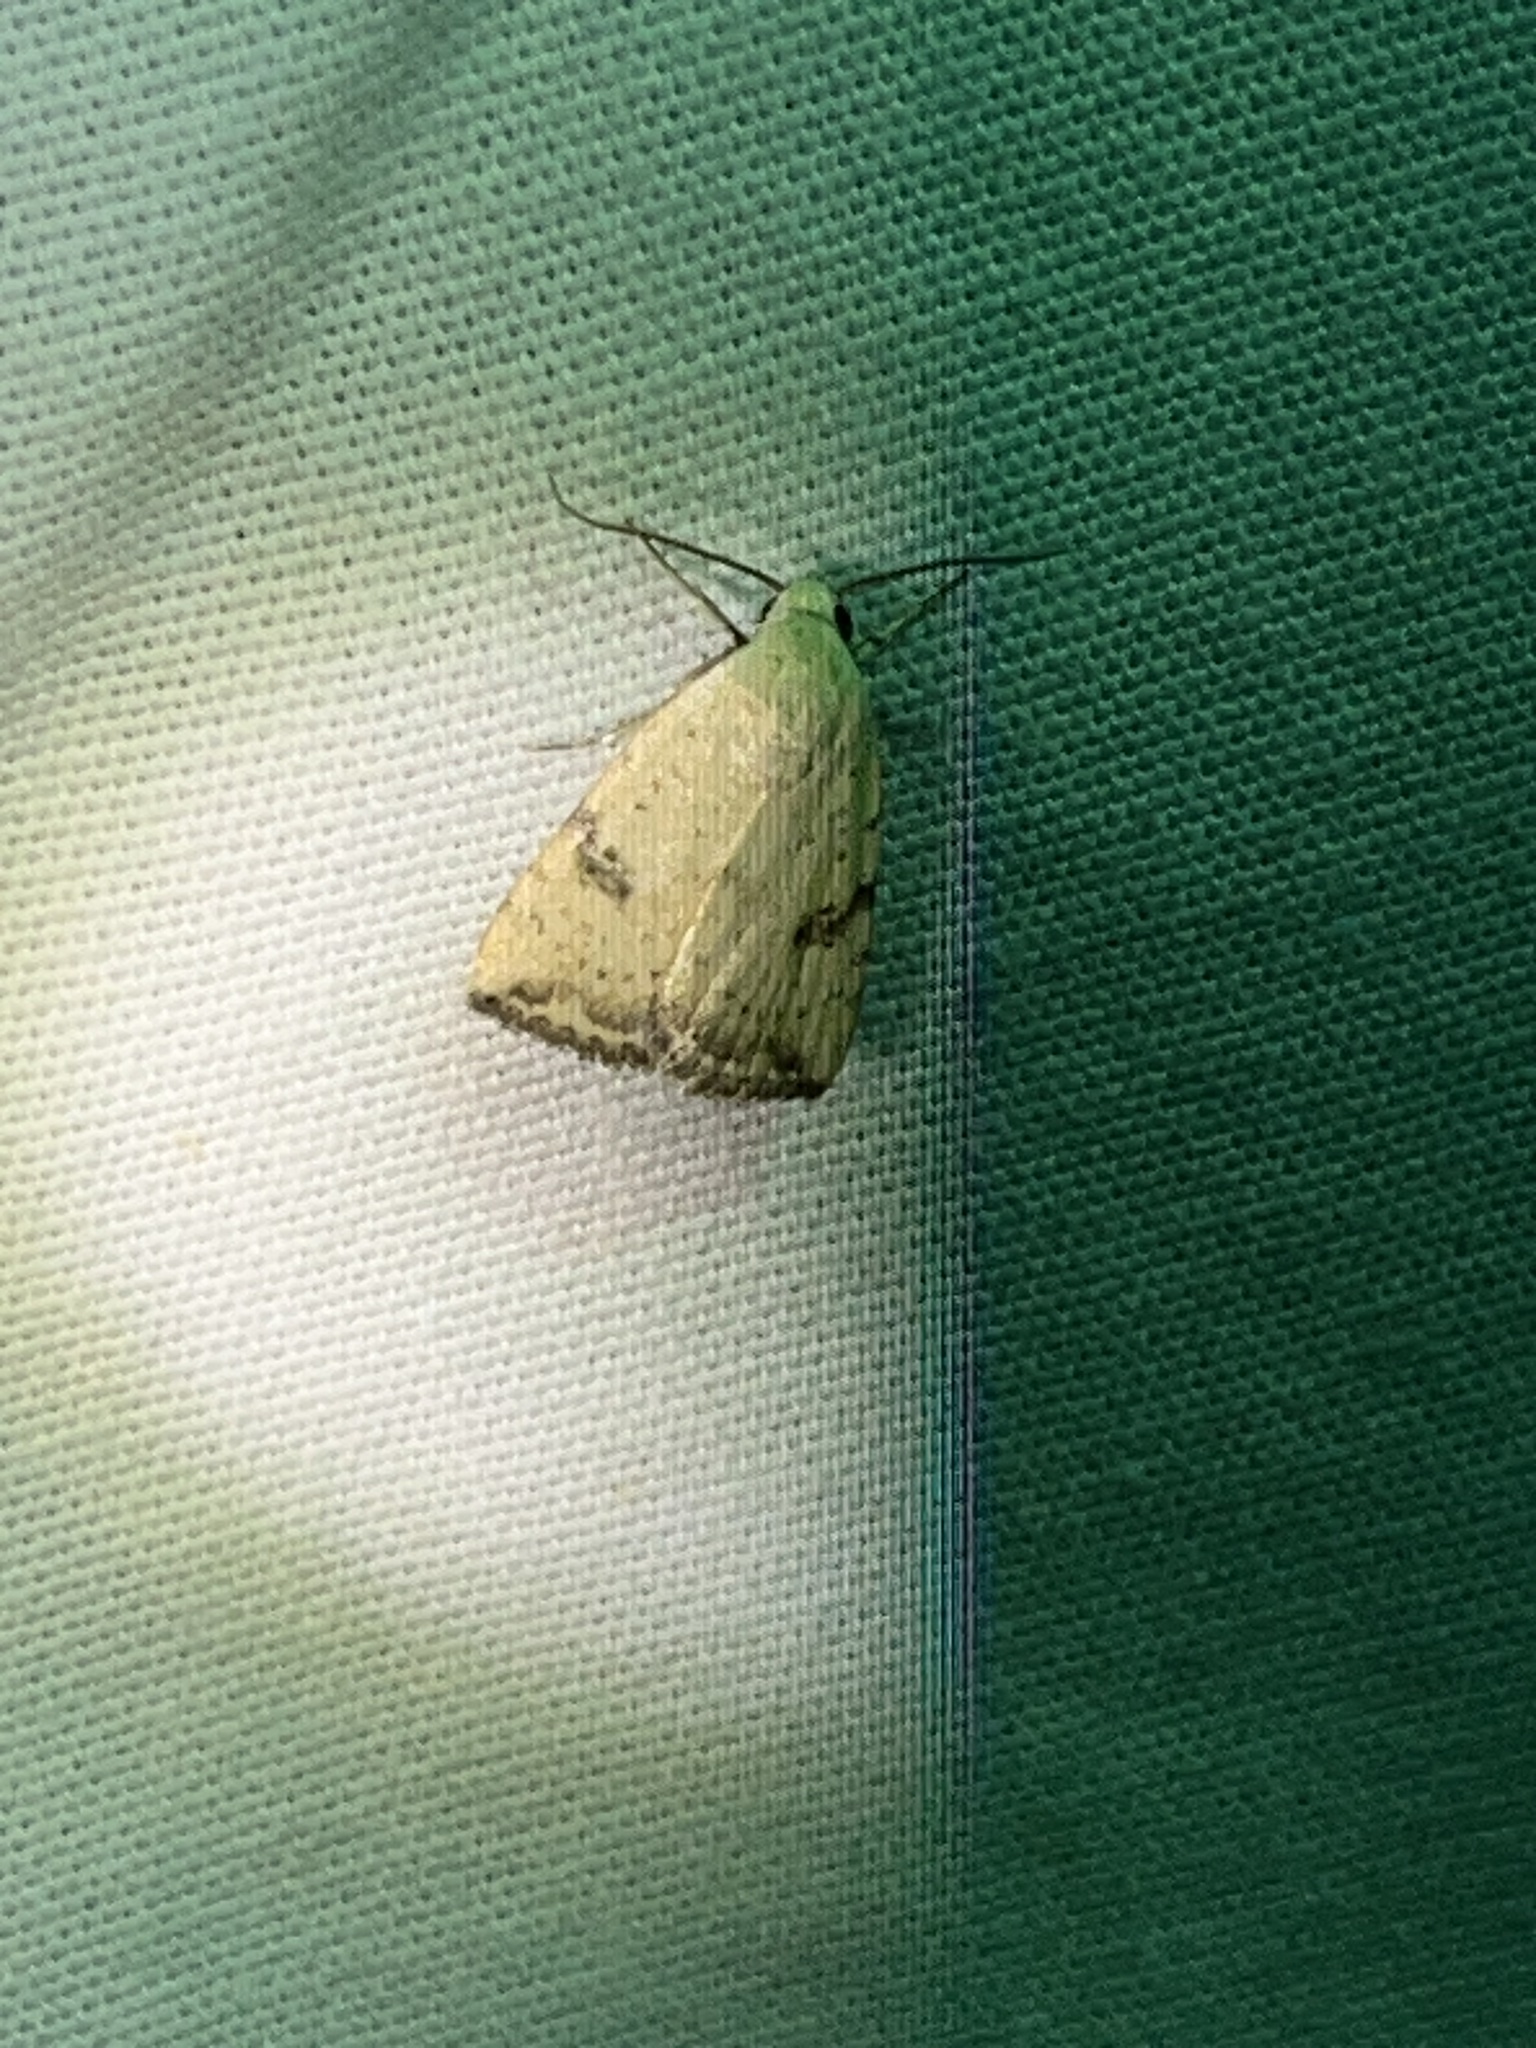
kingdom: Animalia
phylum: Arthropoda
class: Insecta
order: Lepidoptera
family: Noctuidae
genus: Micrathetis
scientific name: Micrathetis triplex
